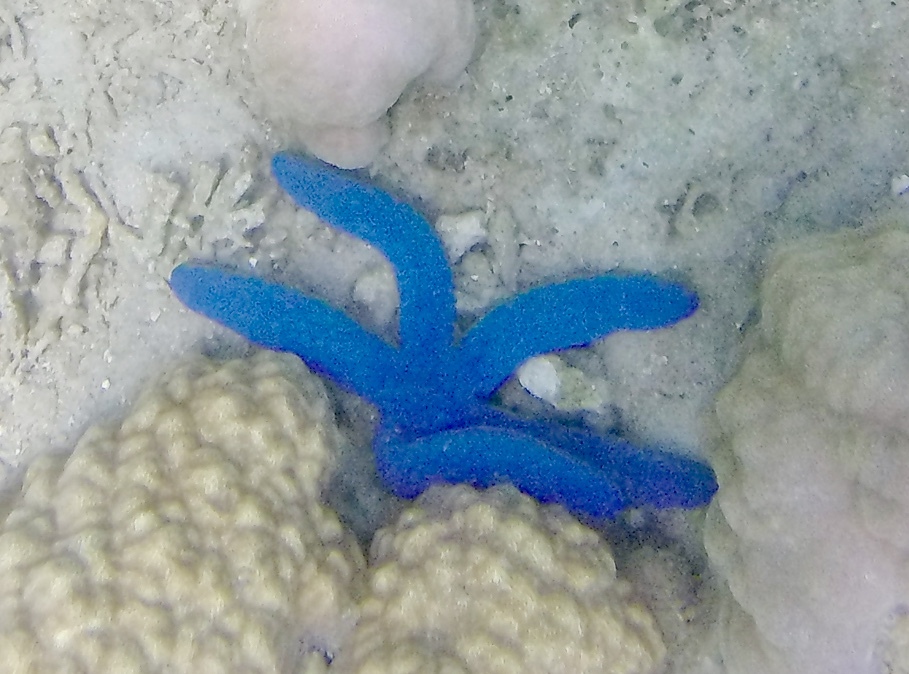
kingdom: Animalia
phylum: Echinodermata
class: Asteroidea
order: Valvatida
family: Ophidiasteridae
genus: Linckia
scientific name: Linckia laevigata
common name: Azure sea star
